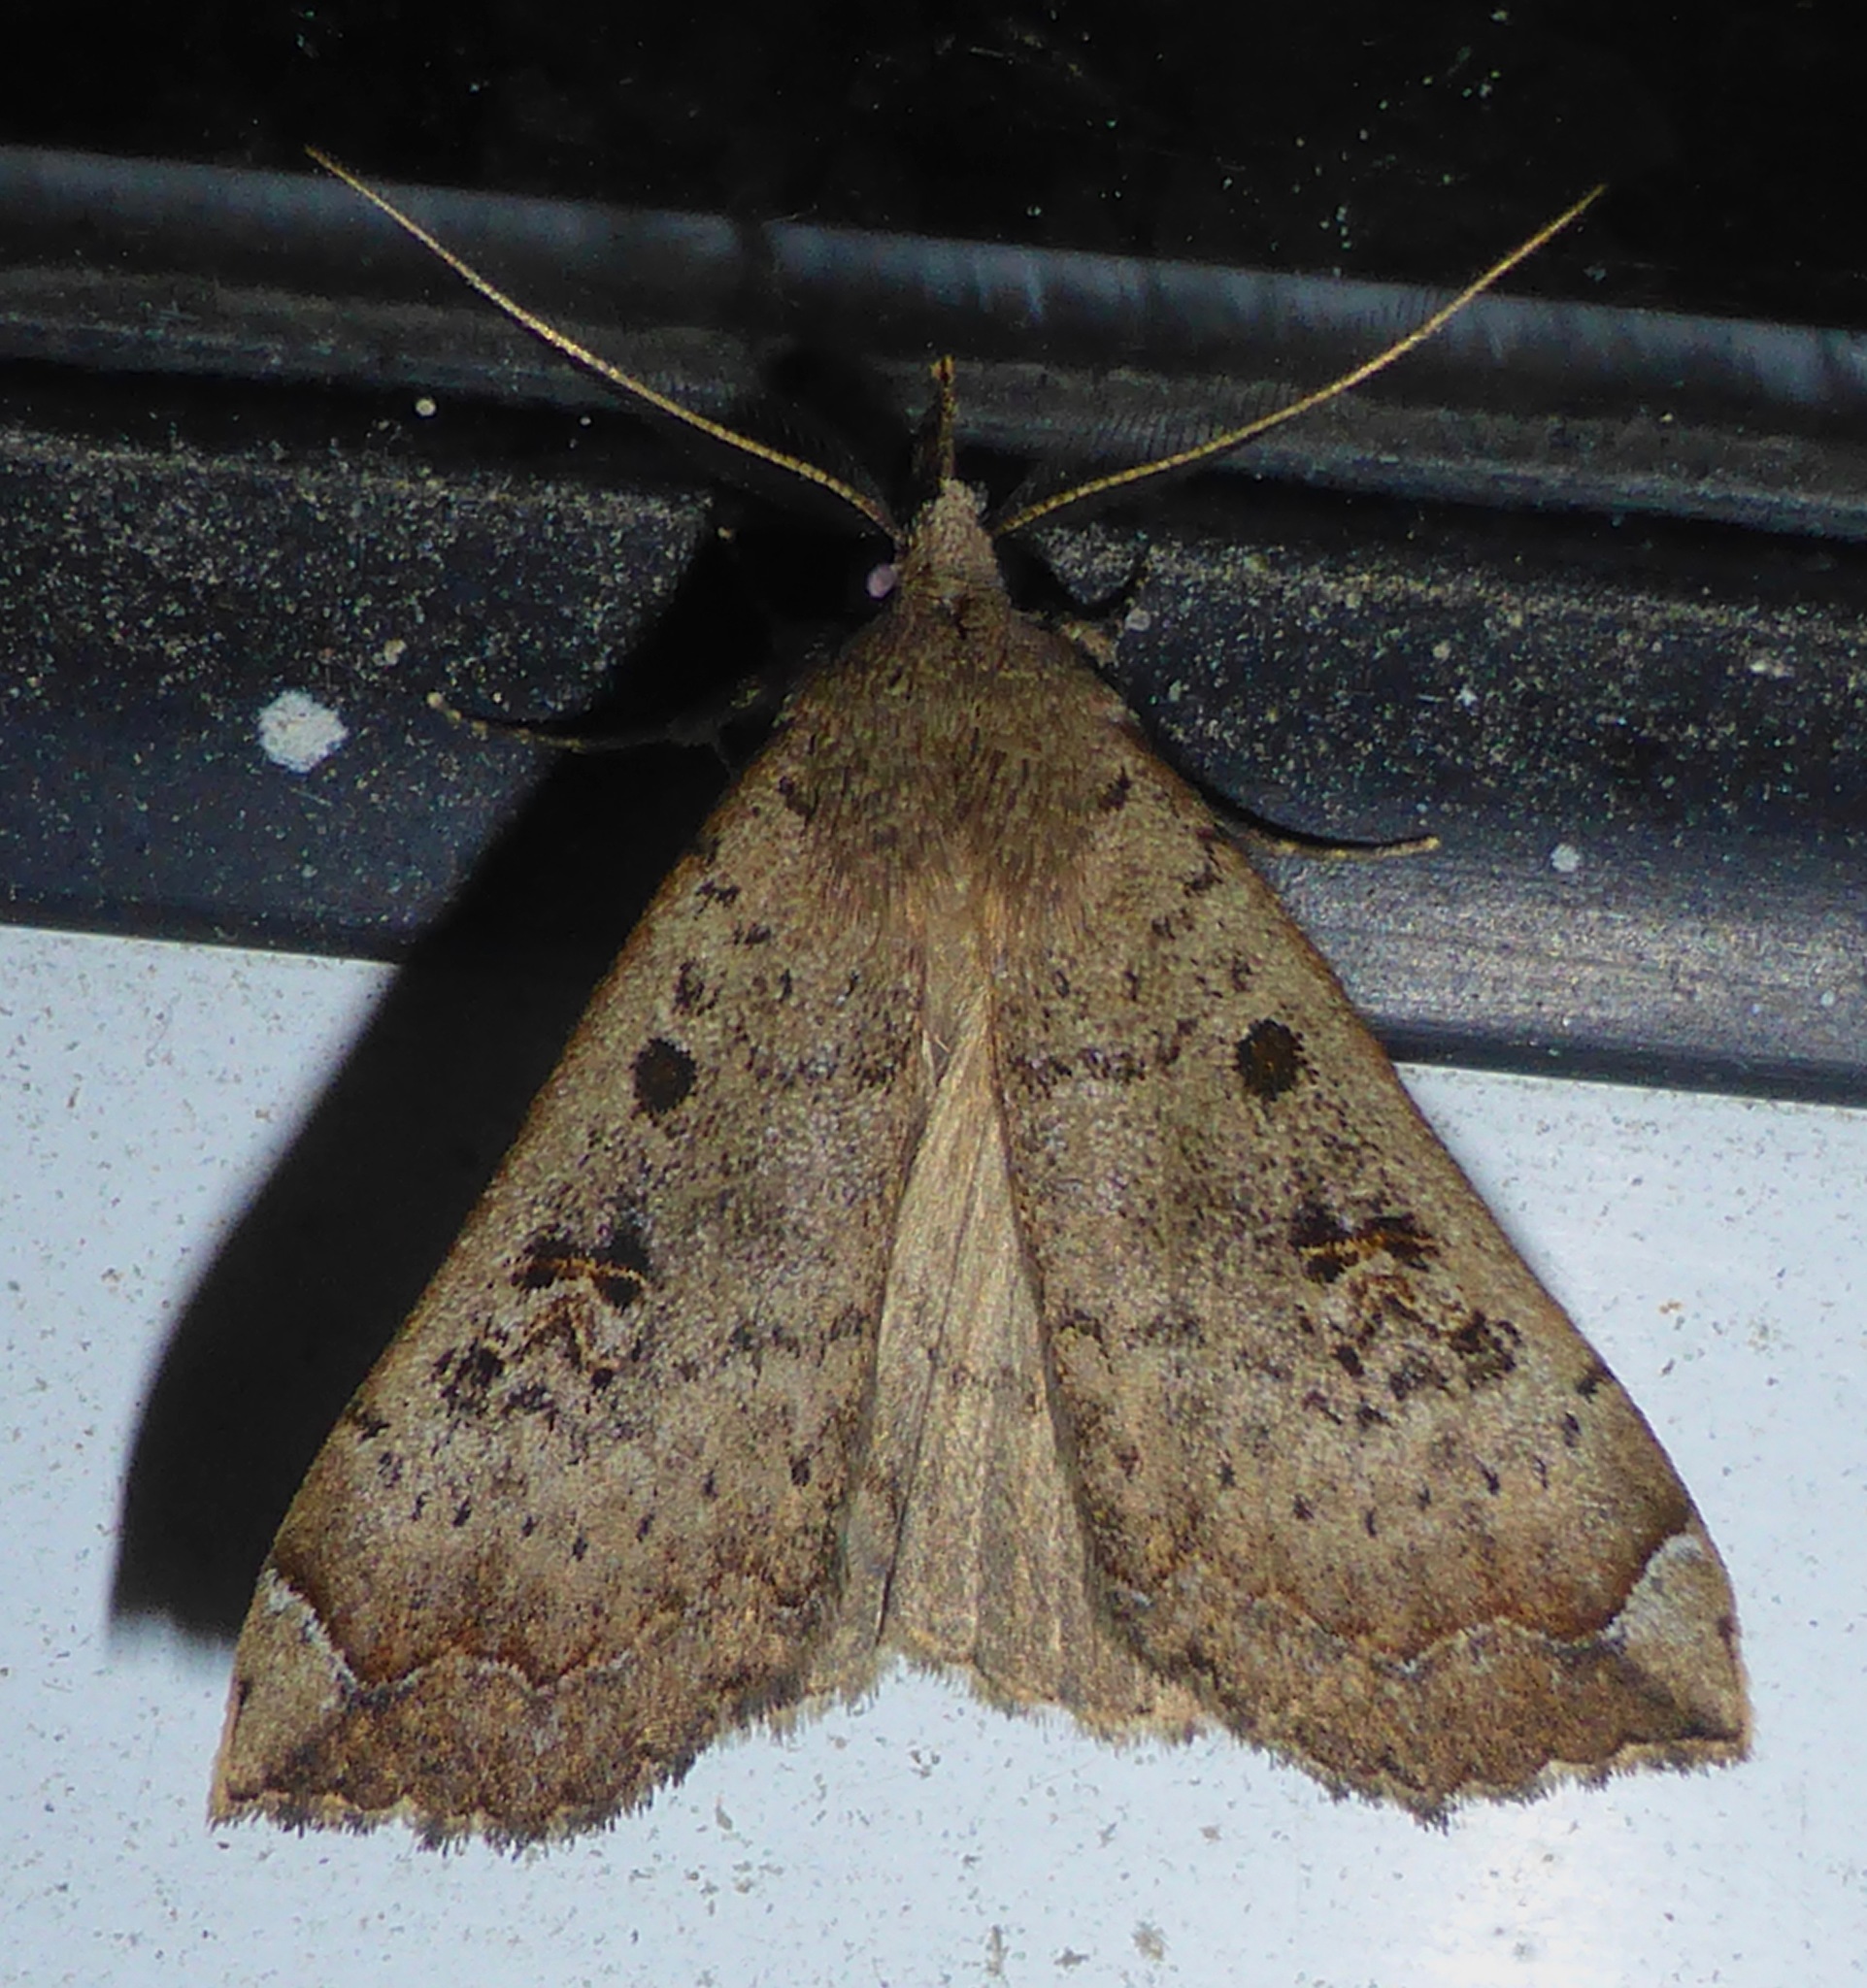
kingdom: Animalia
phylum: Arthropoda
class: Insecta
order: Lepidoptera
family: Erebidae
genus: Rhapsa
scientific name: Rhapsa scotosialis
